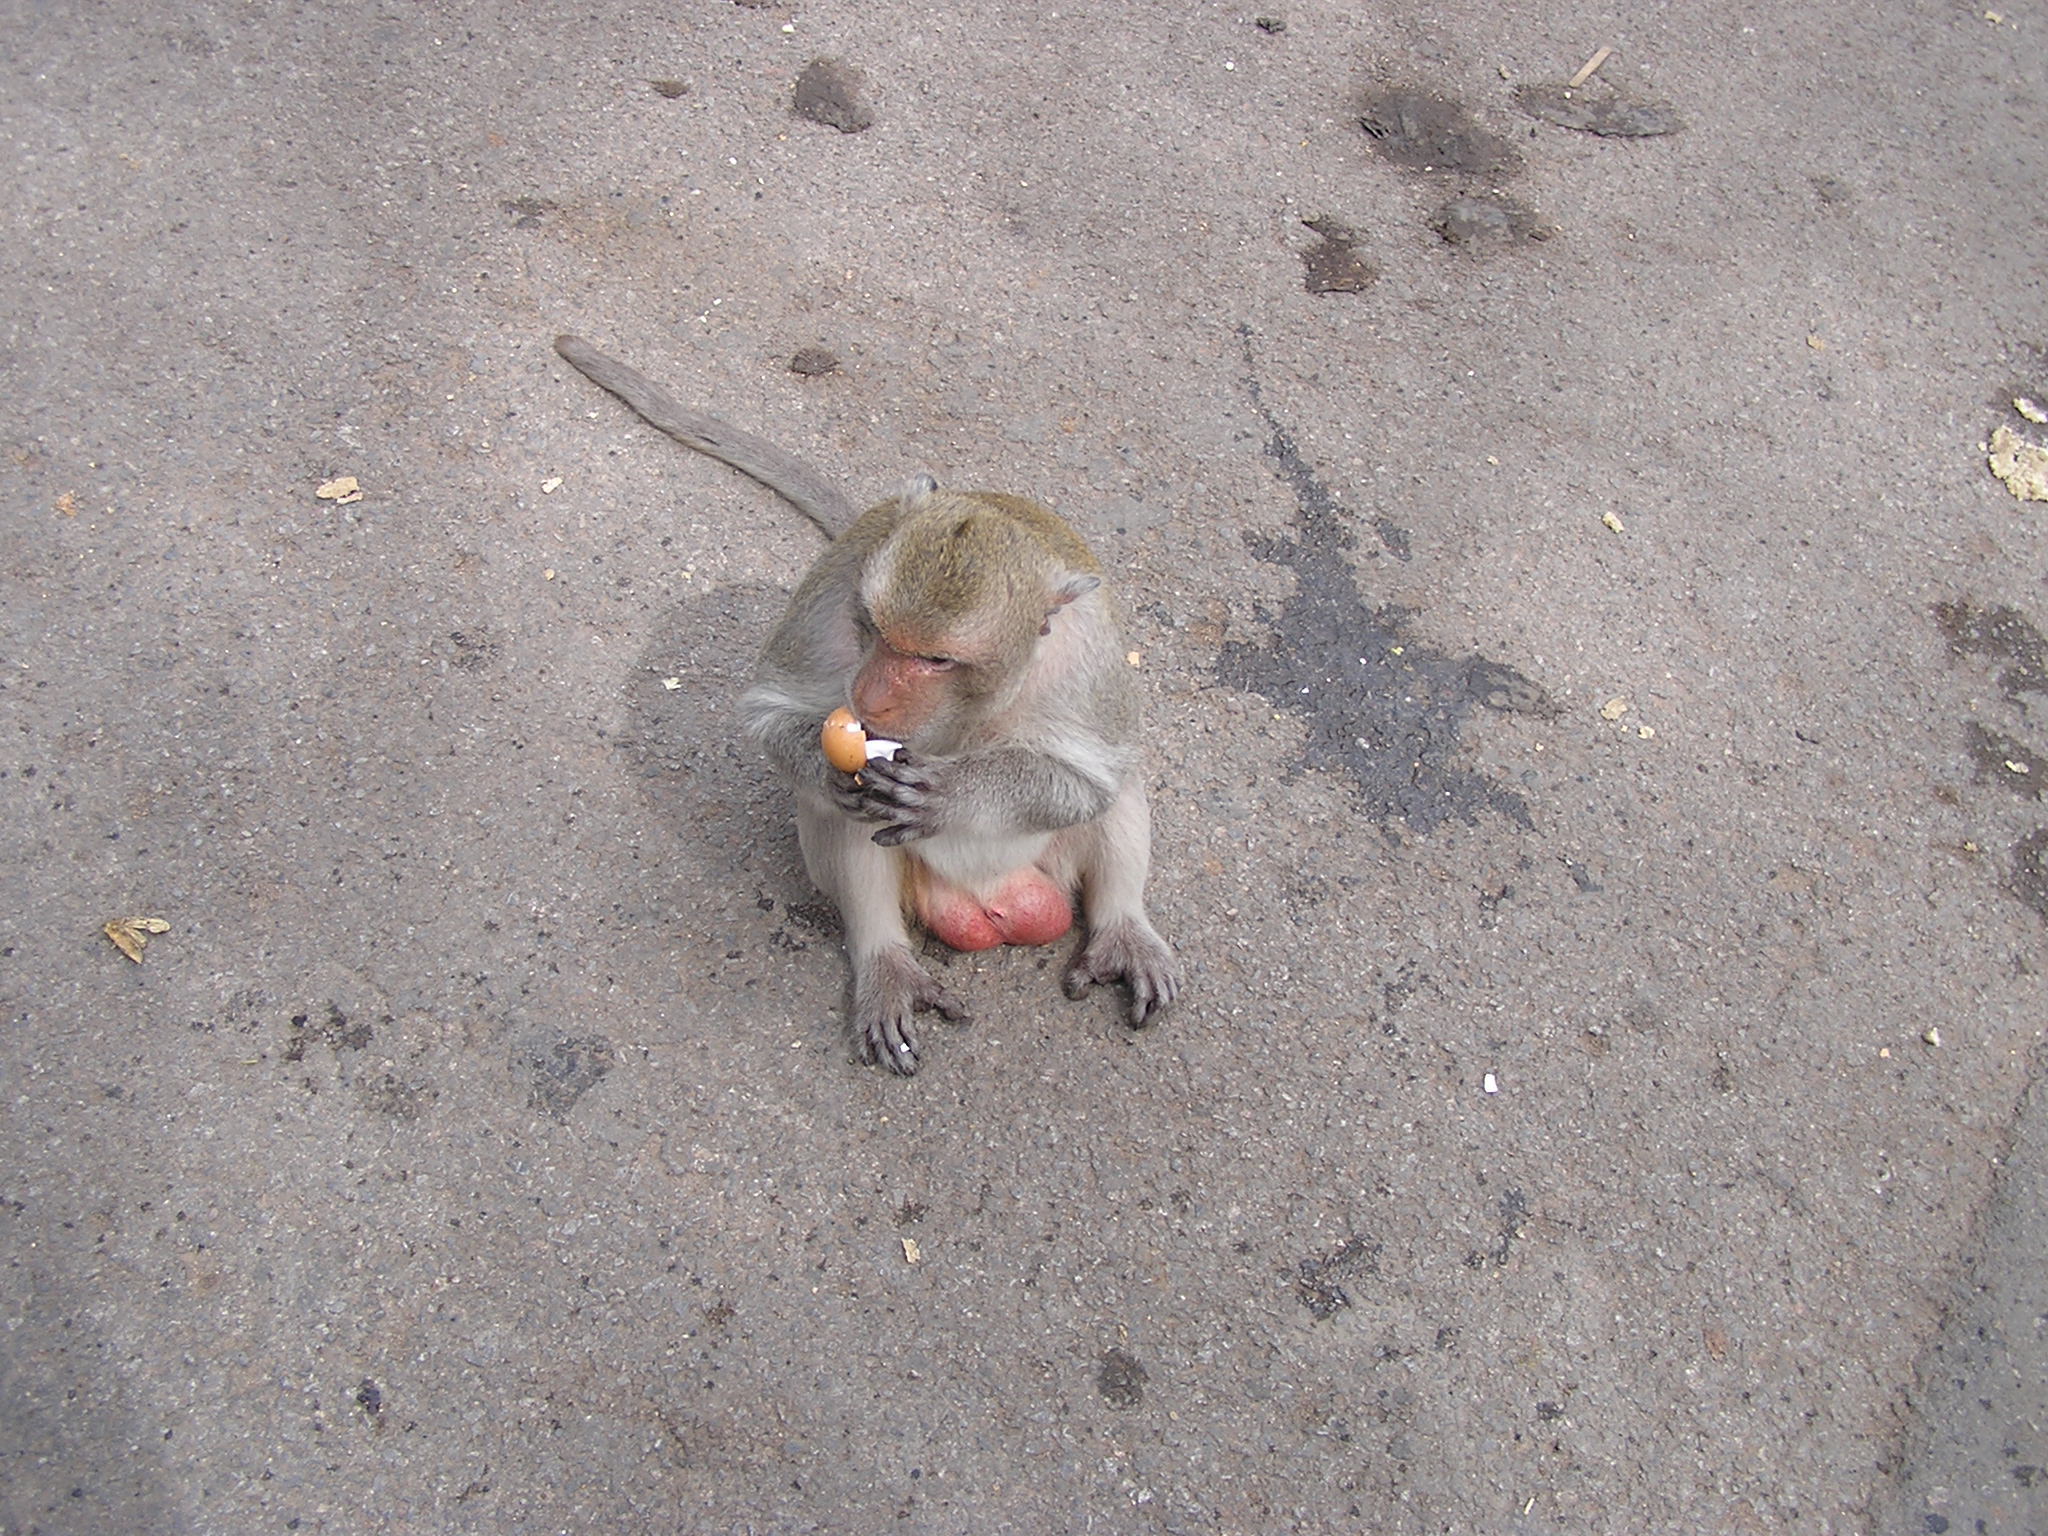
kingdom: Animalia
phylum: Chordata
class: Mammalia
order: Primates
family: Cercopithecidae
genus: Macaca
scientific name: Macaca fascicularis
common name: Crab-eating macaque
